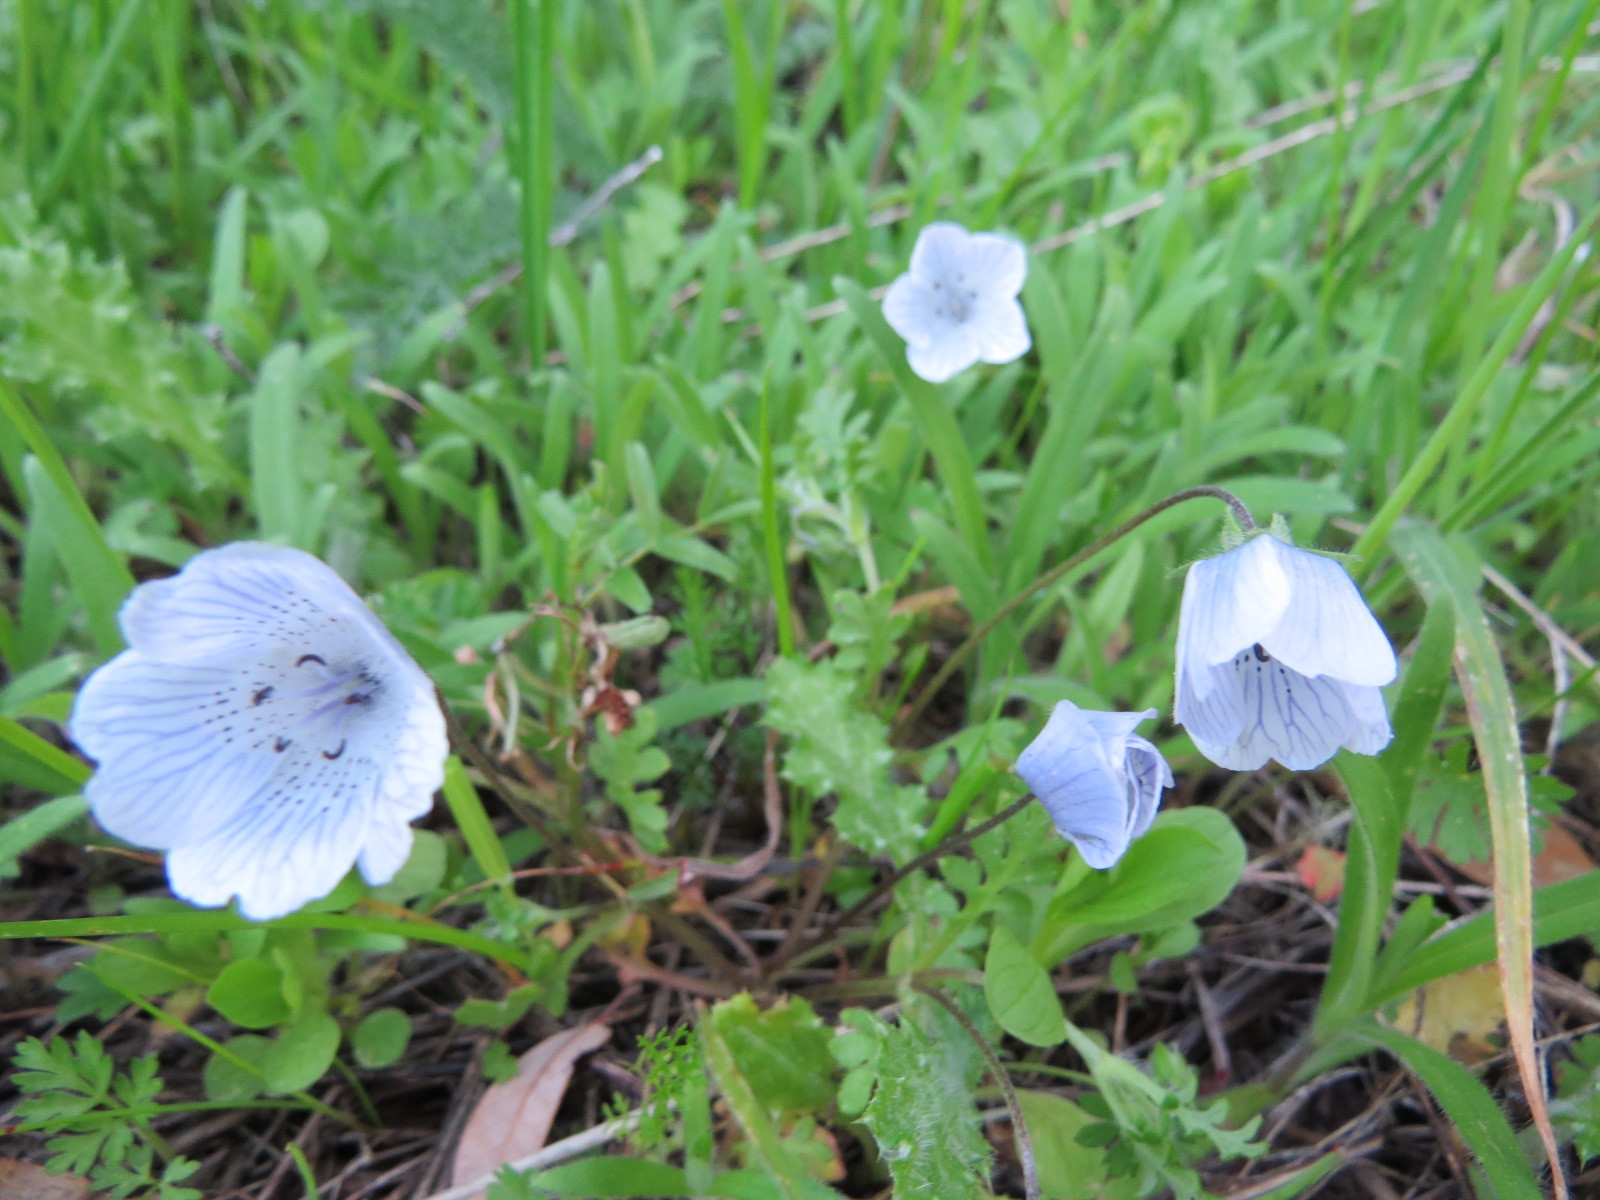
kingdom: Plantae
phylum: Tracheophyta
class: Magnoliopsida
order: Boraginales
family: Hydrophyllaceae
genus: Nemophila
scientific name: Nemophila menziesii
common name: Baby's-blue-eyes
